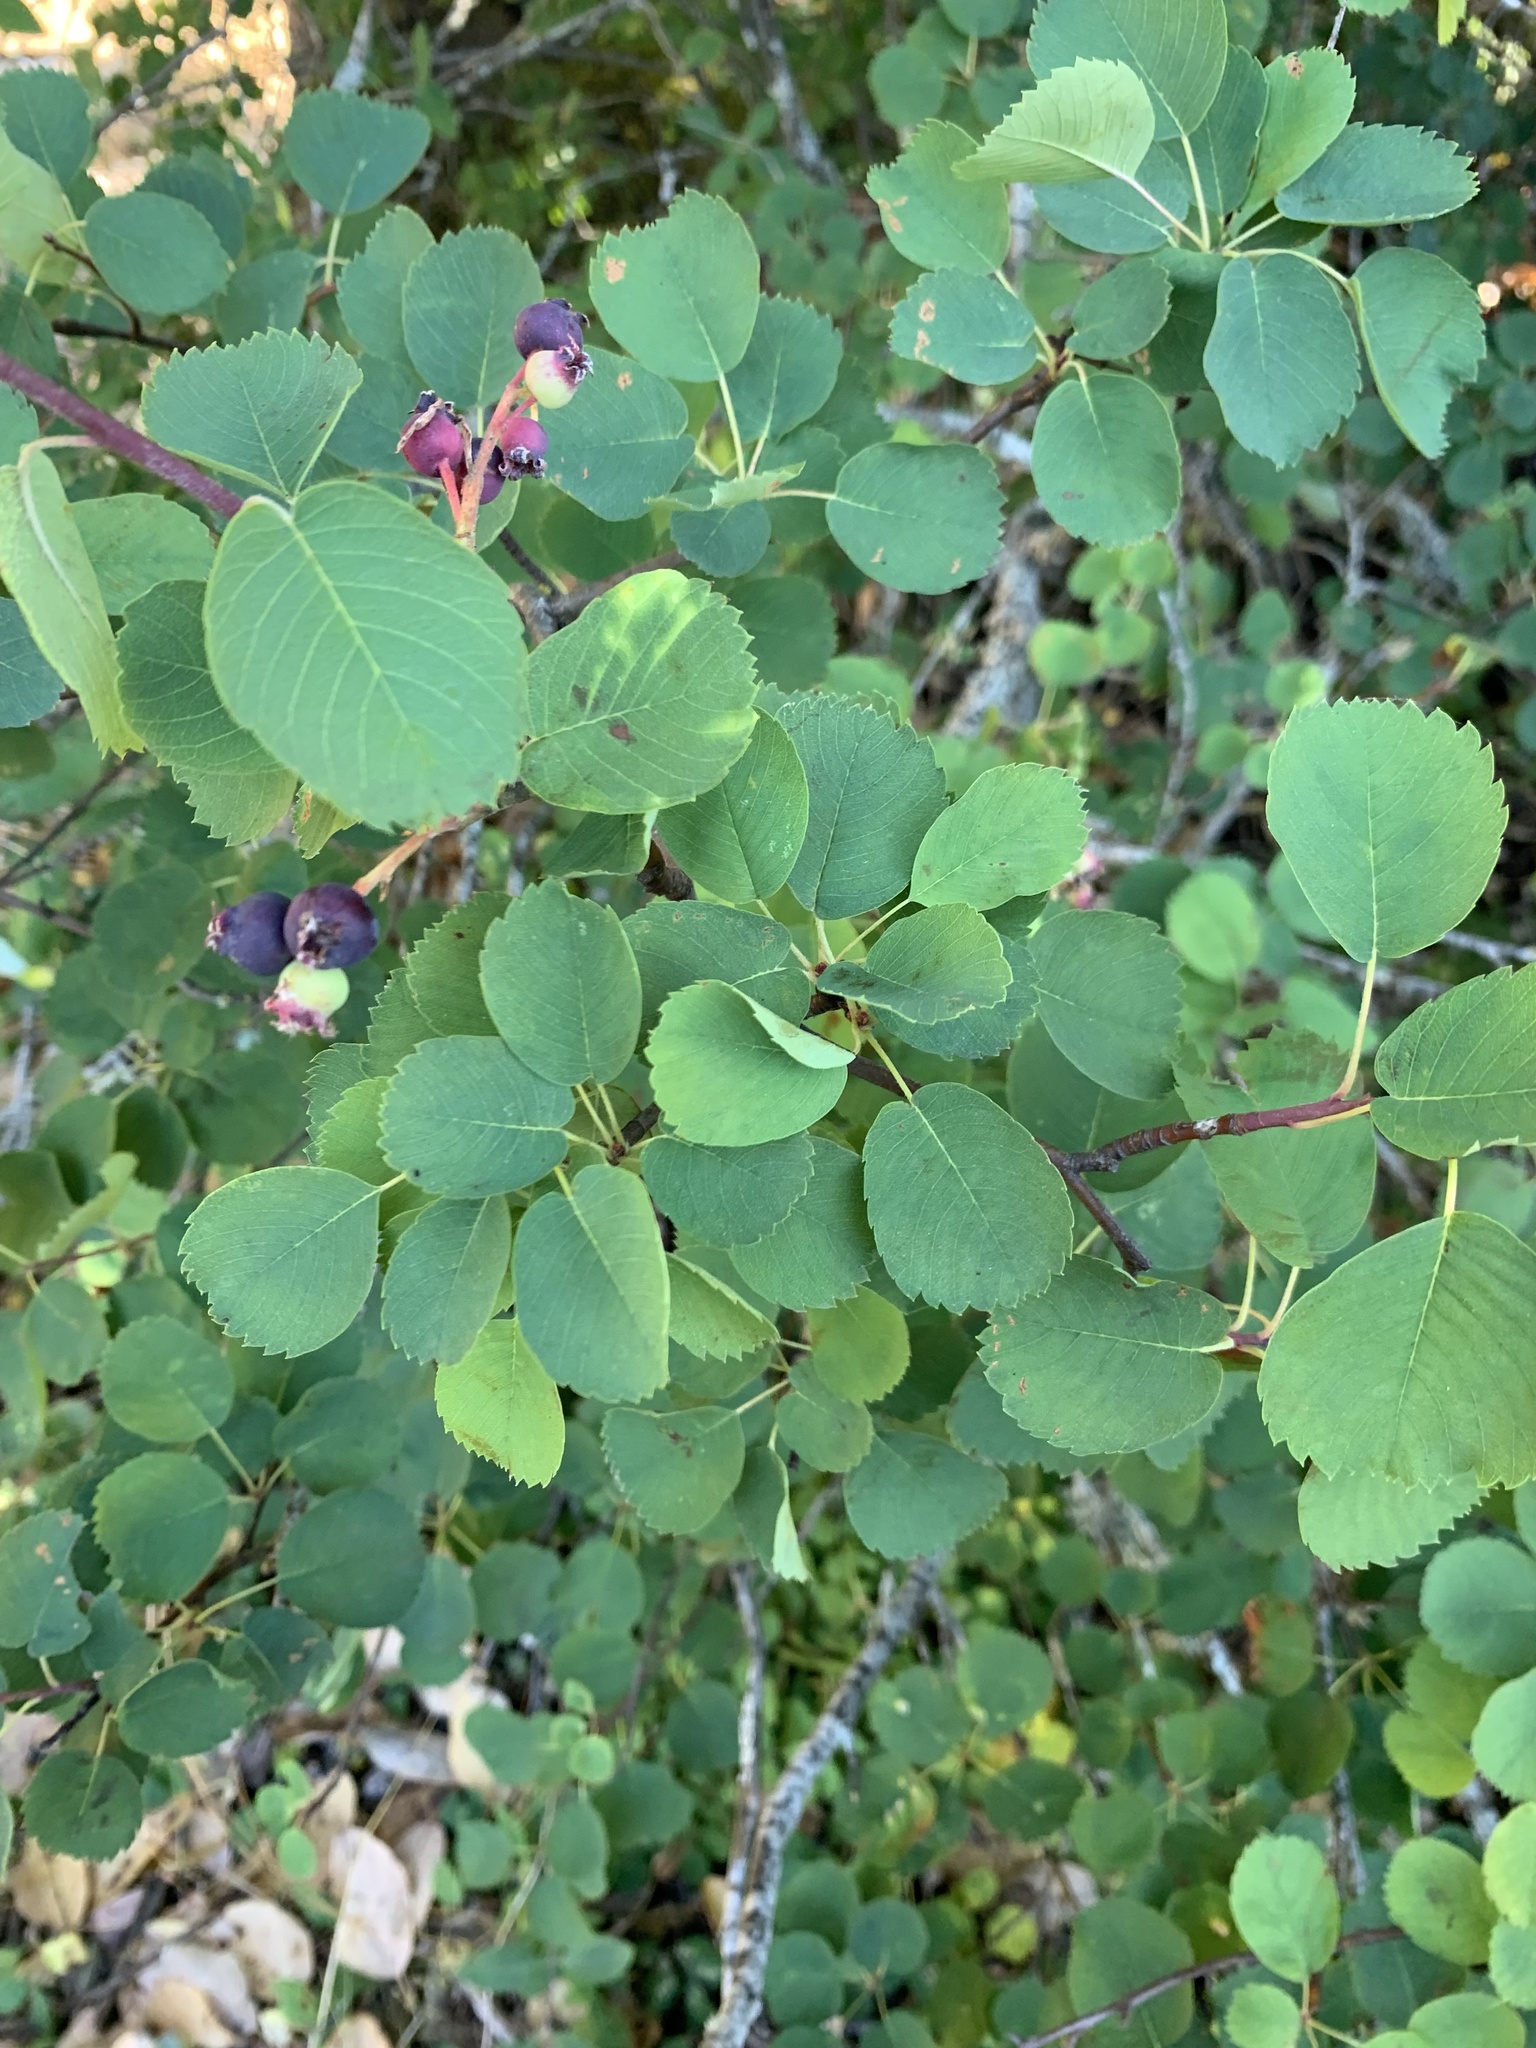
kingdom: Plantae
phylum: Tracheophyta
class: Magnoliopsida
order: Rosales
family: Rosaceae
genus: Amelanchier
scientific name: Amelanchier alnifolia
